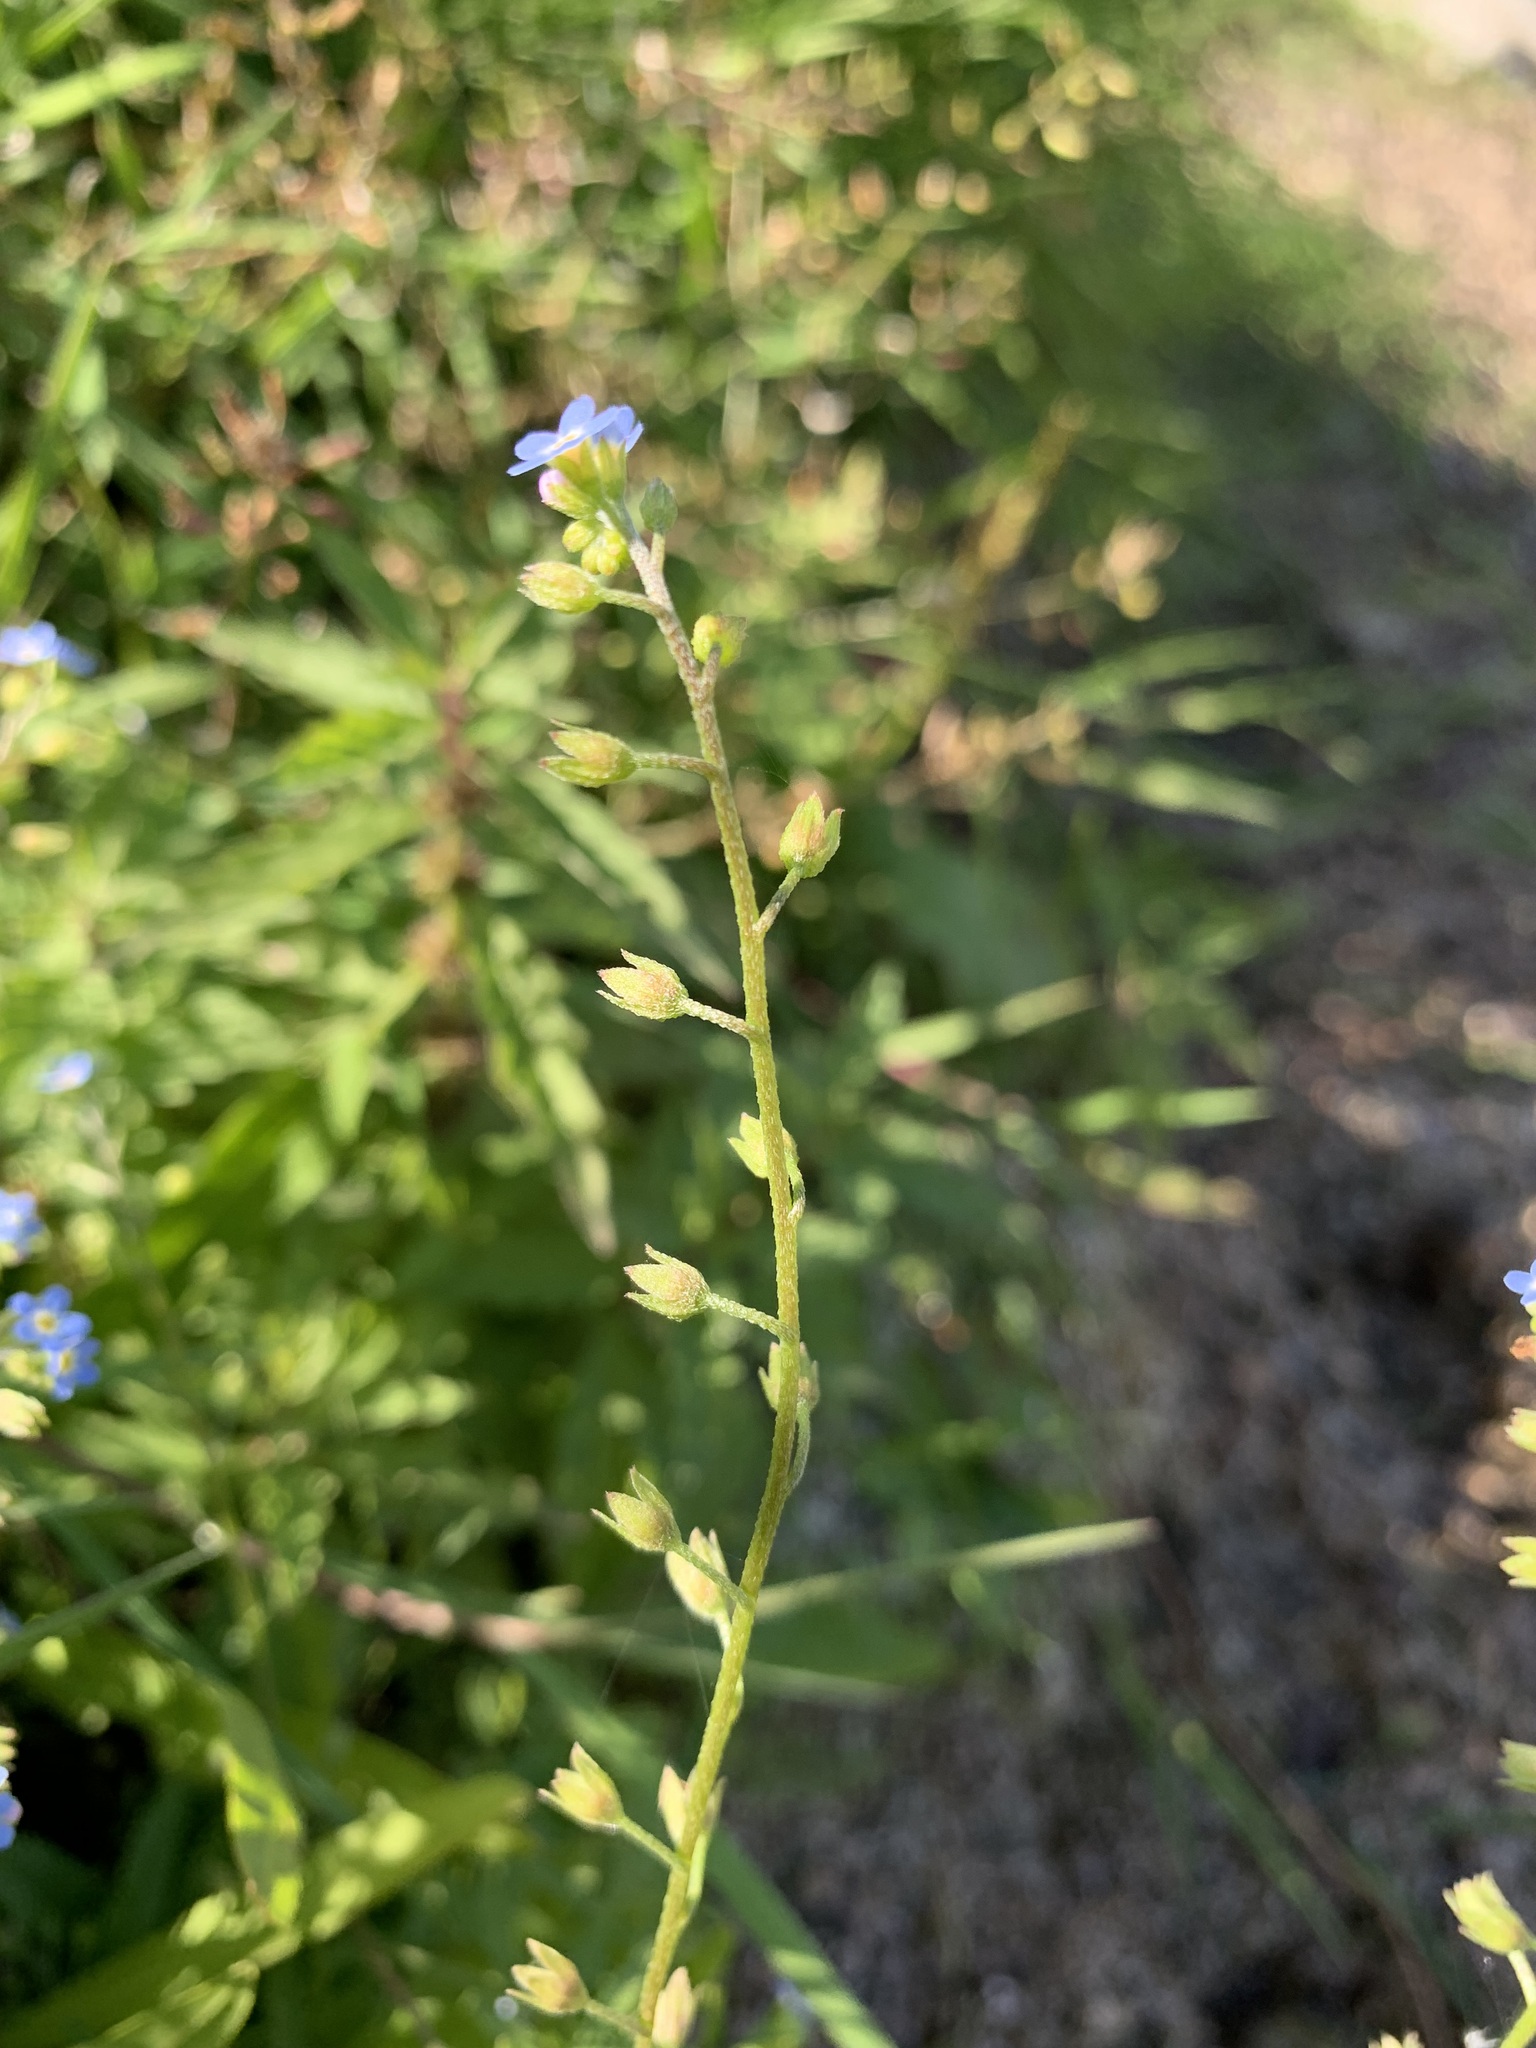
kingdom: Plantae
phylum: Tracheophyta
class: Magnoliopsida
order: Boraginales
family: Boraginaceae
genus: Myosotis
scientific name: Myosotis scorpioides
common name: Water forget-me-not
